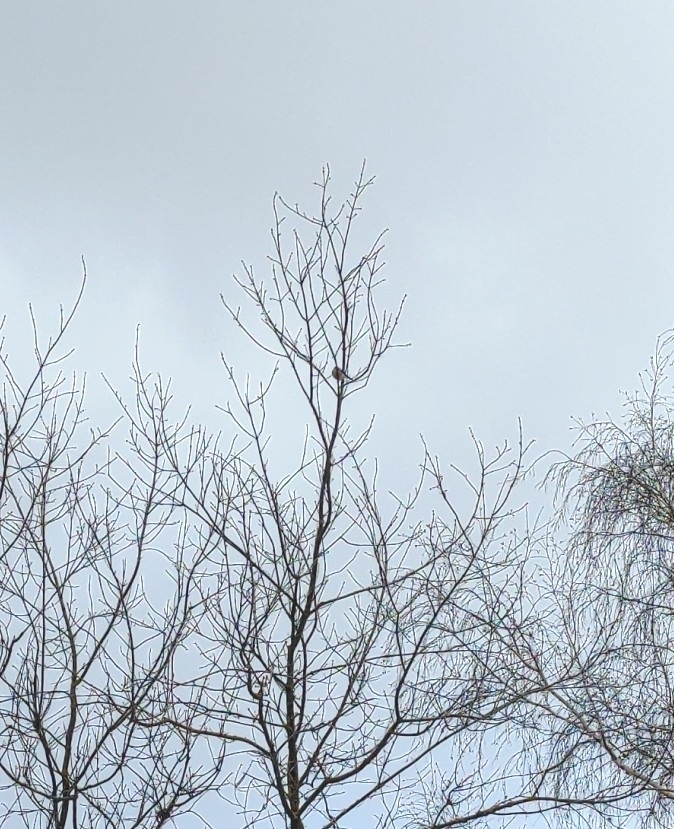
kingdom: Animalia
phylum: Chordata
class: Aves
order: Passeriformes
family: Fringillidae
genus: Pyrrhula
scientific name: Pyrrhula pyrrhula
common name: Eurasian bullfinch
